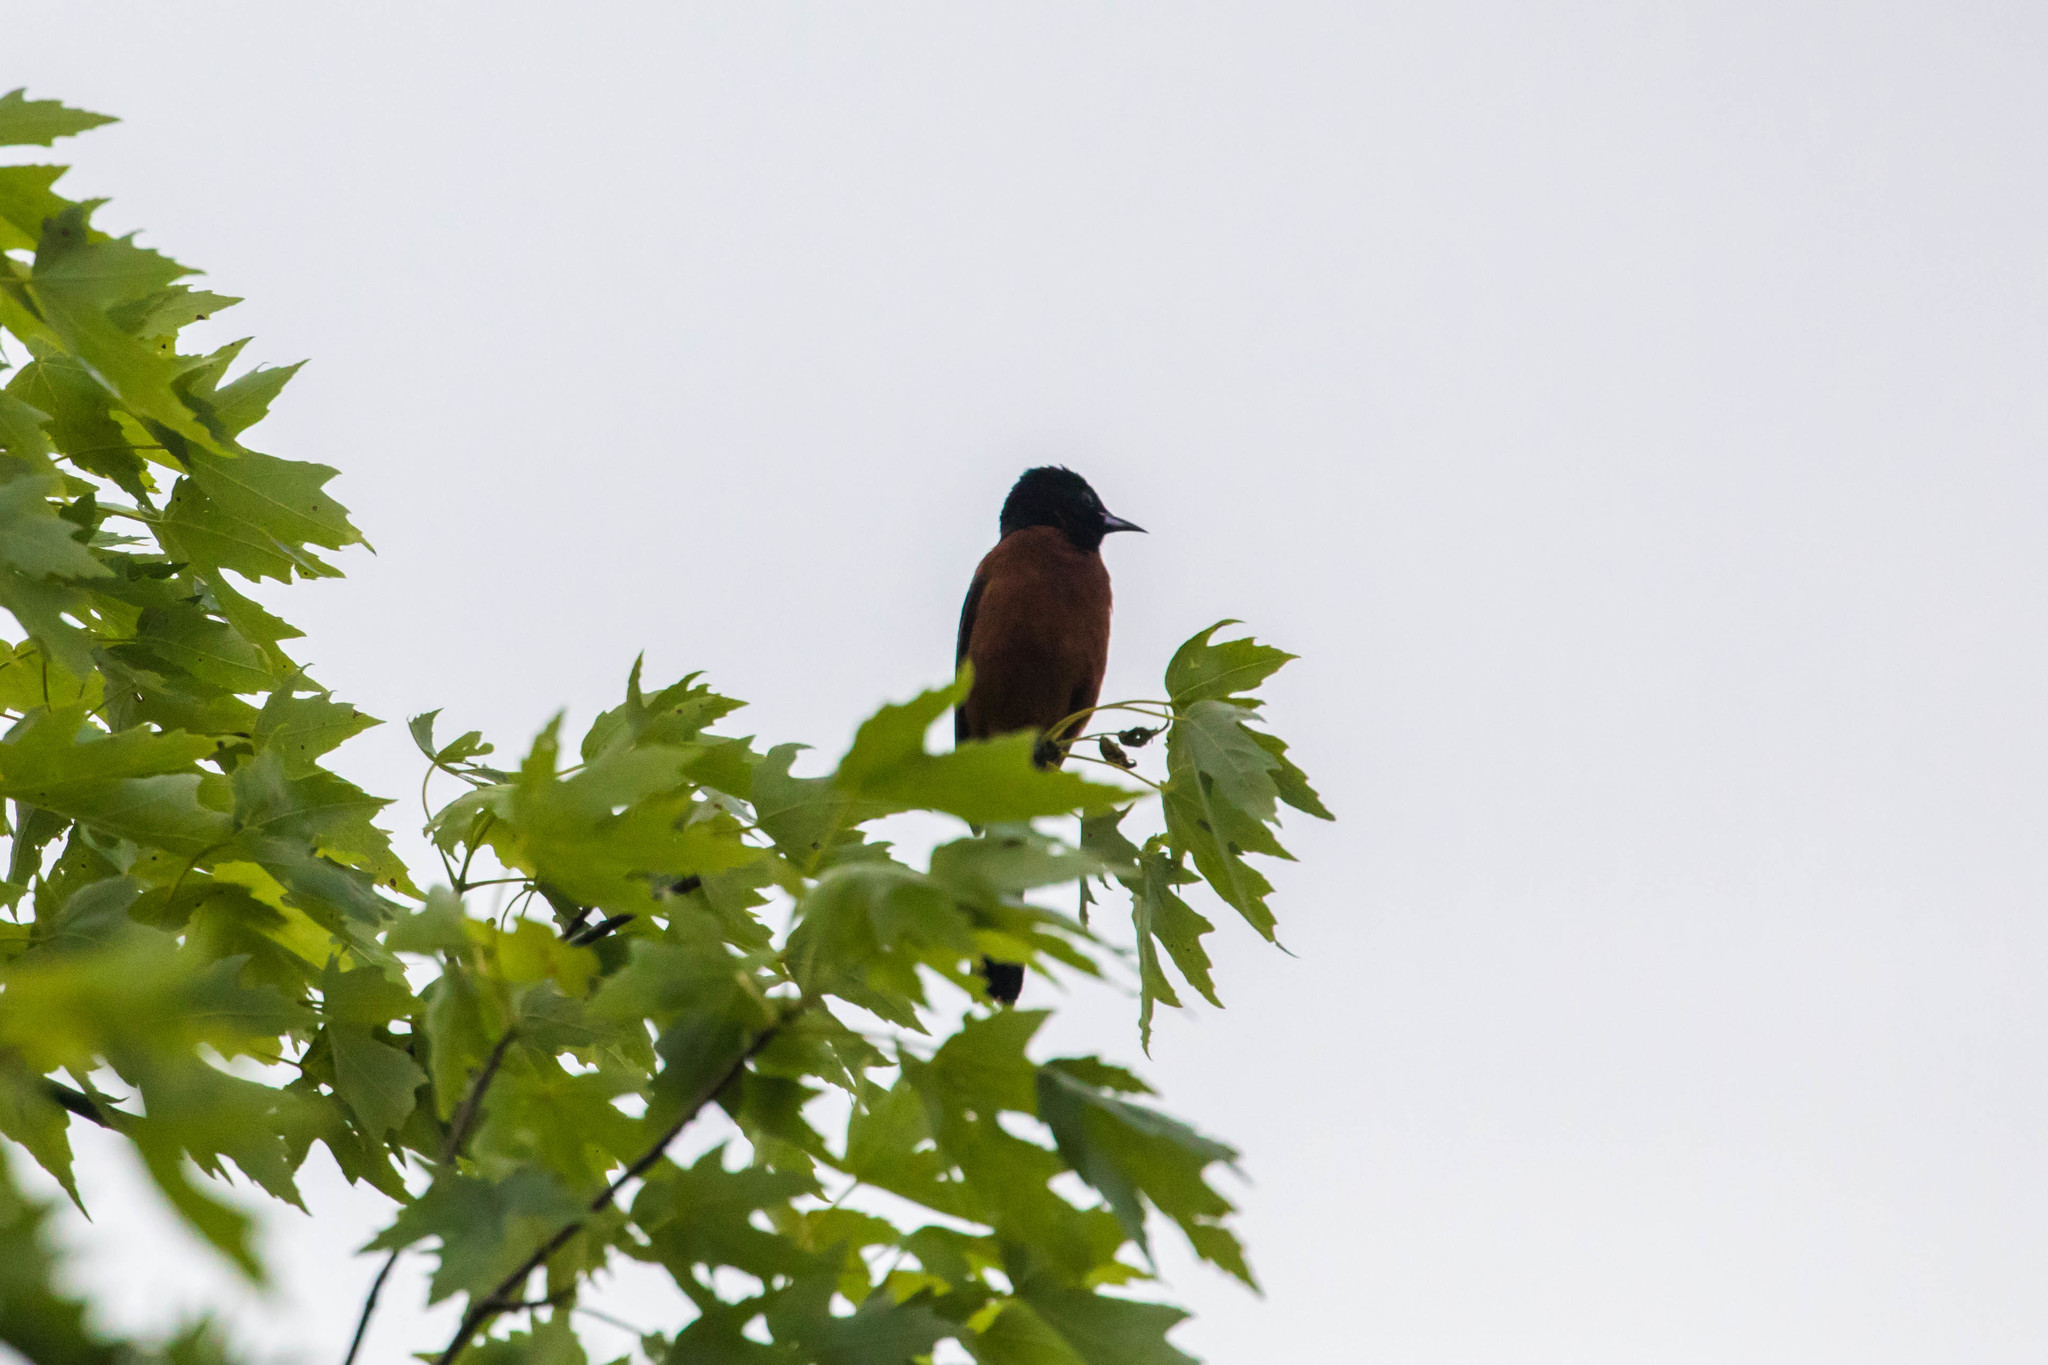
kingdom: Animalia
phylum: Chordata
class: Aves
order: Passeriformes
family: Icteridae
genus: Icterus
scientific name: Icterus spurius
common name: Orchard oriole
